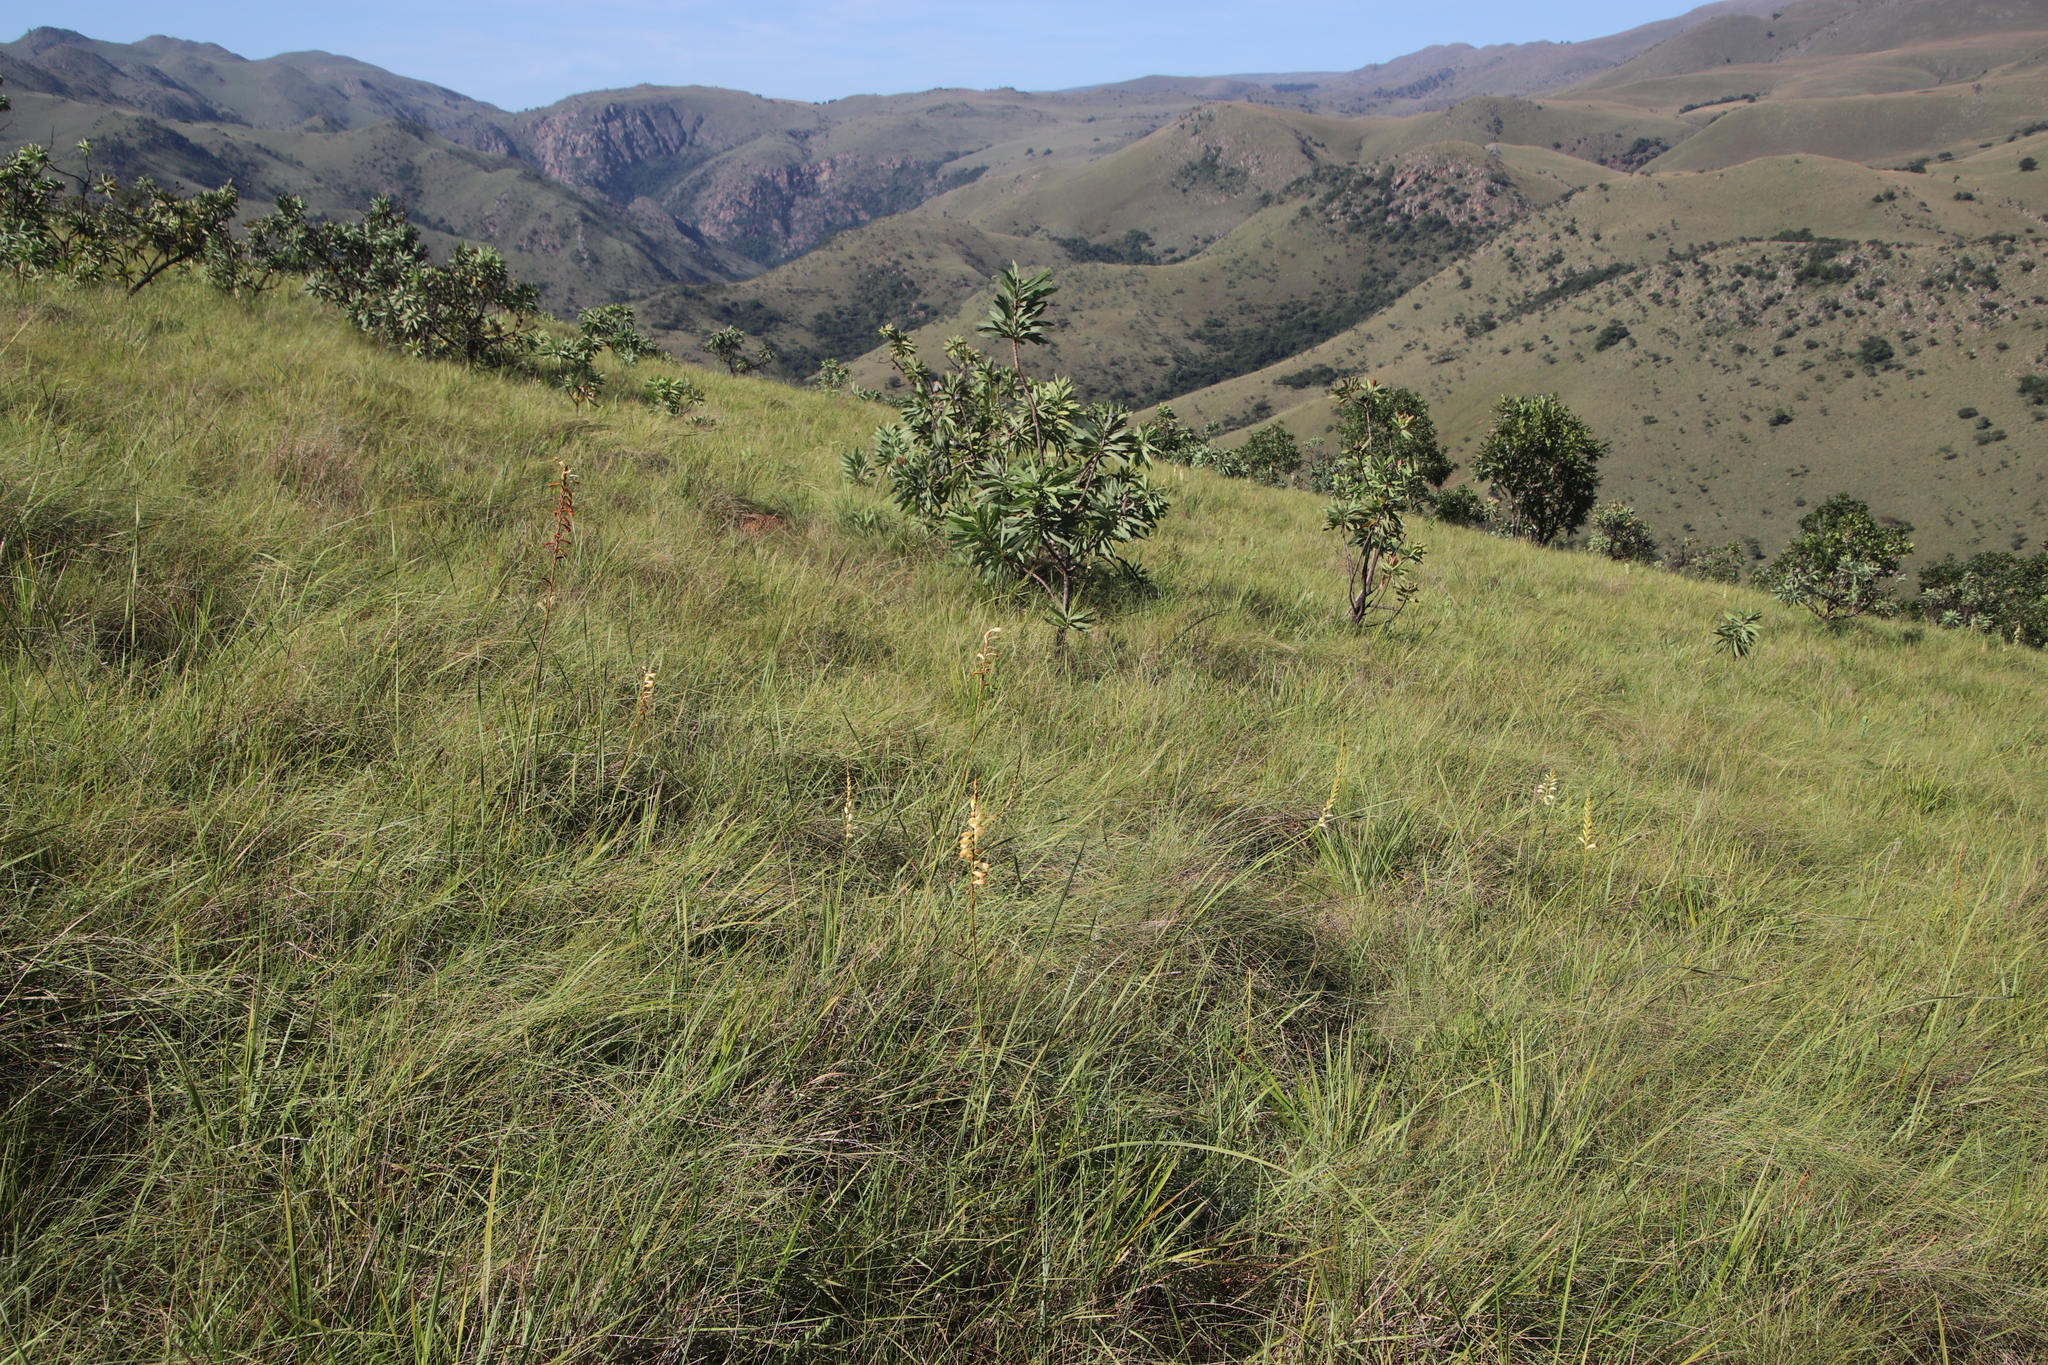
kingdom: Plantae
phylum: Tracheophyta
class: Liliopsida
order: Asparagales
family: Iridaceae
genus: Watsonia
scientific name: Watsonia watsonioides
